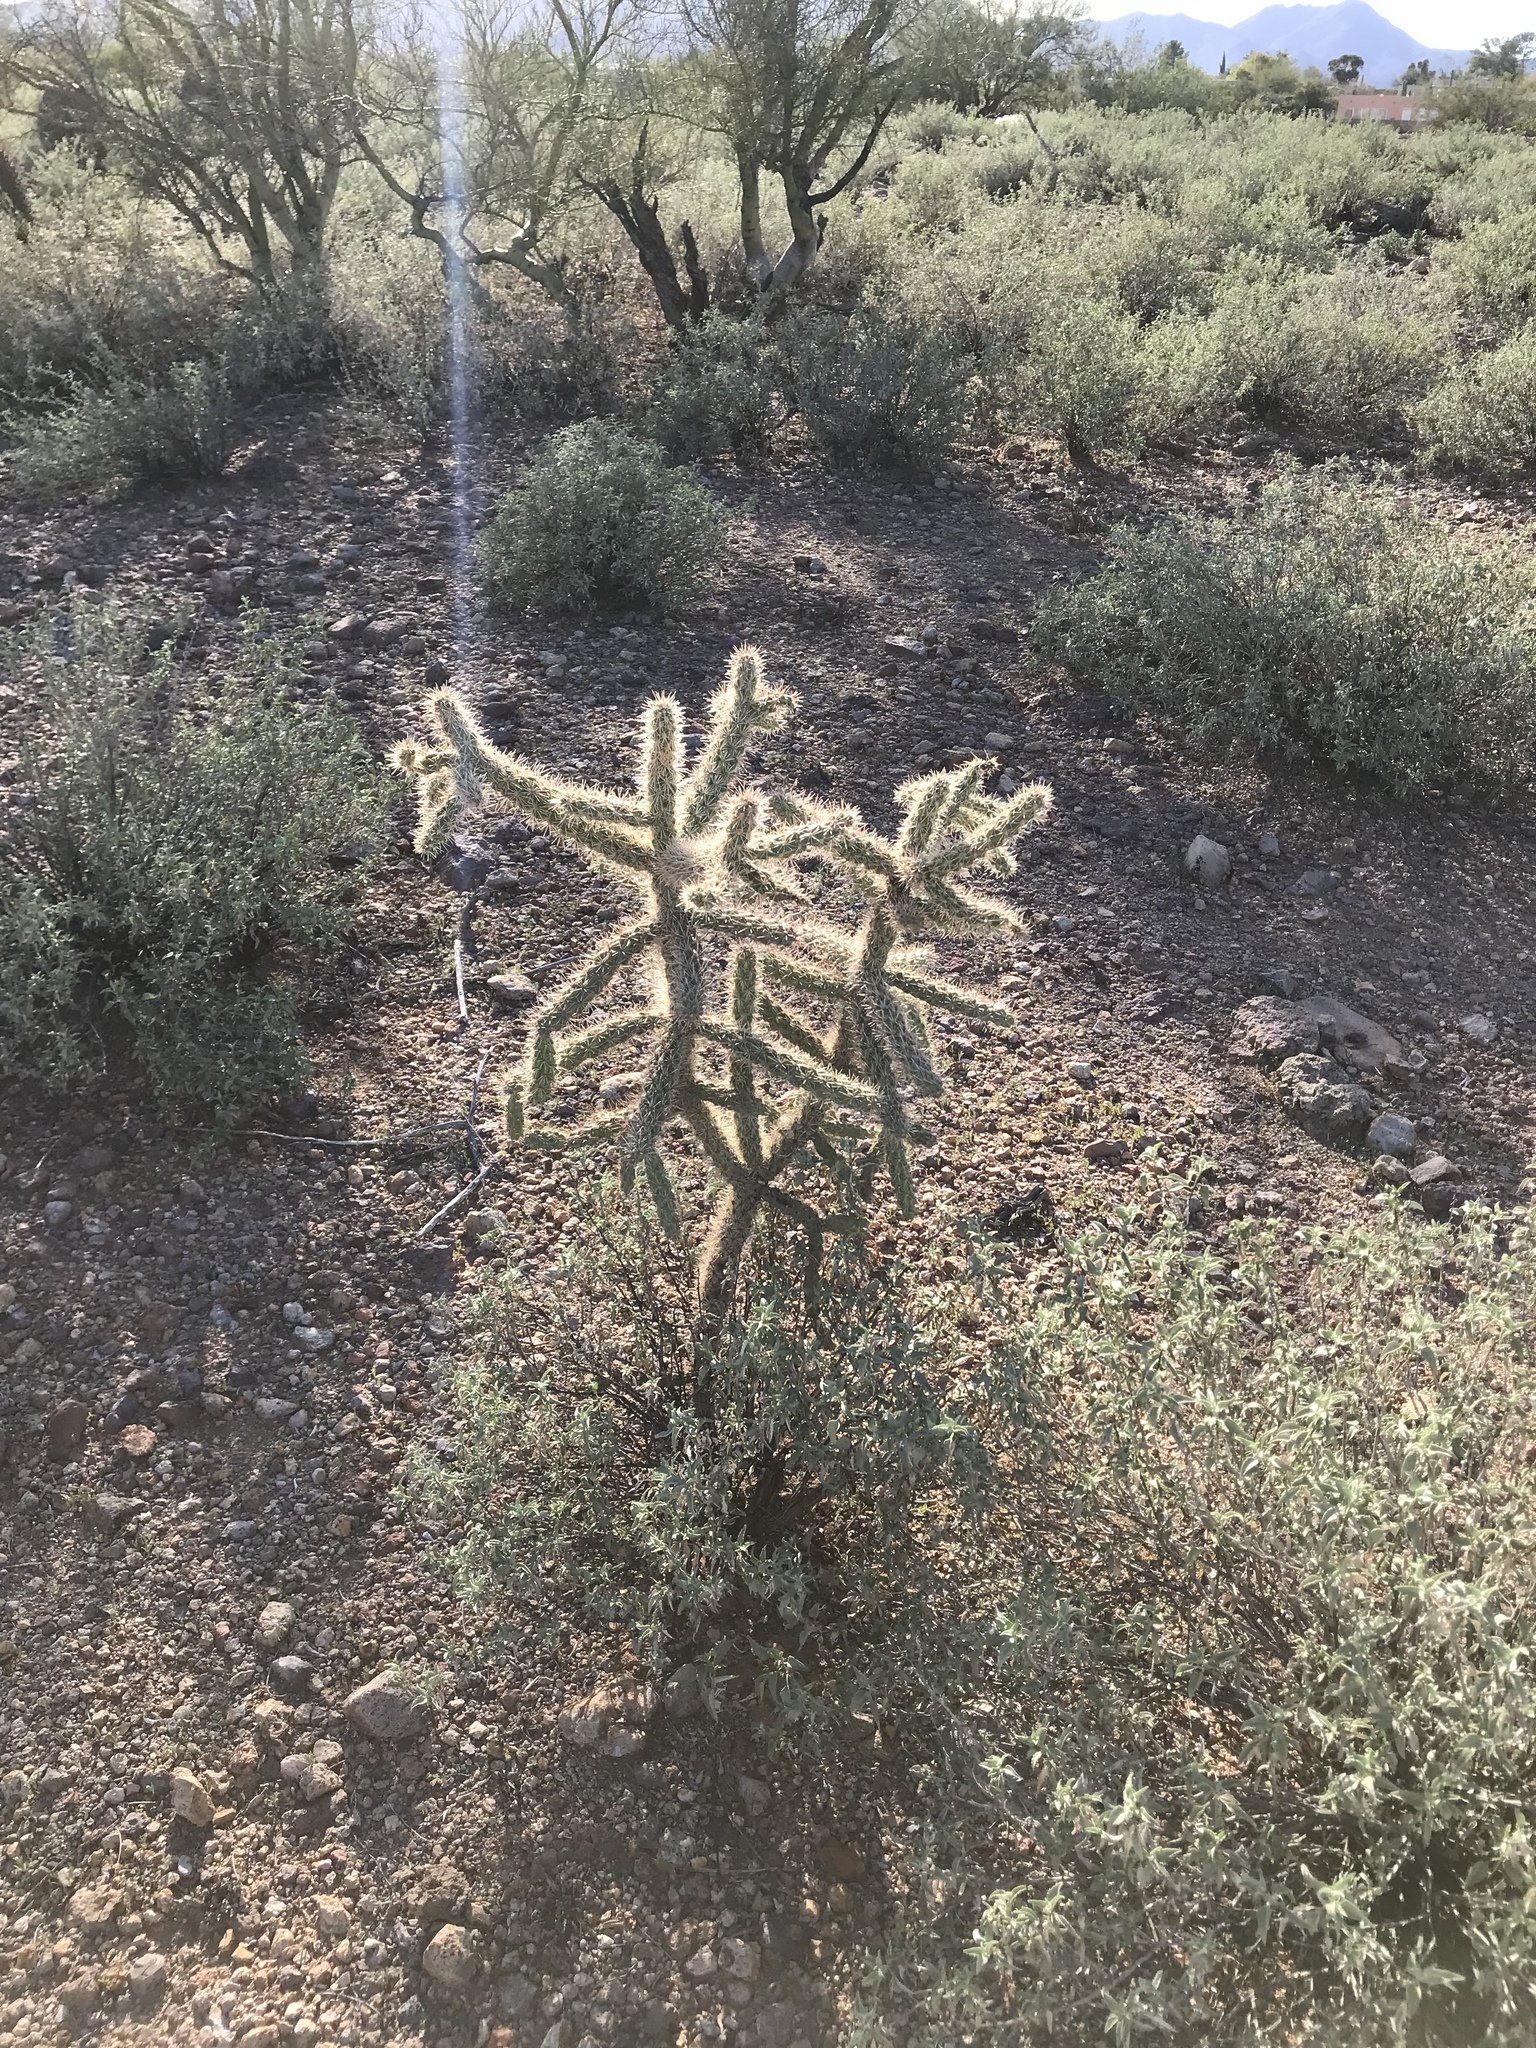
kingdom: Plantae
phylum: Tracheophyta
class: Magnoliopsida
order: Caryophyllales
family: Cactaceae
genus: Cylindropuntia
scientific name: Cylindropuntia imbricata
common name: Candelabrum cactus
